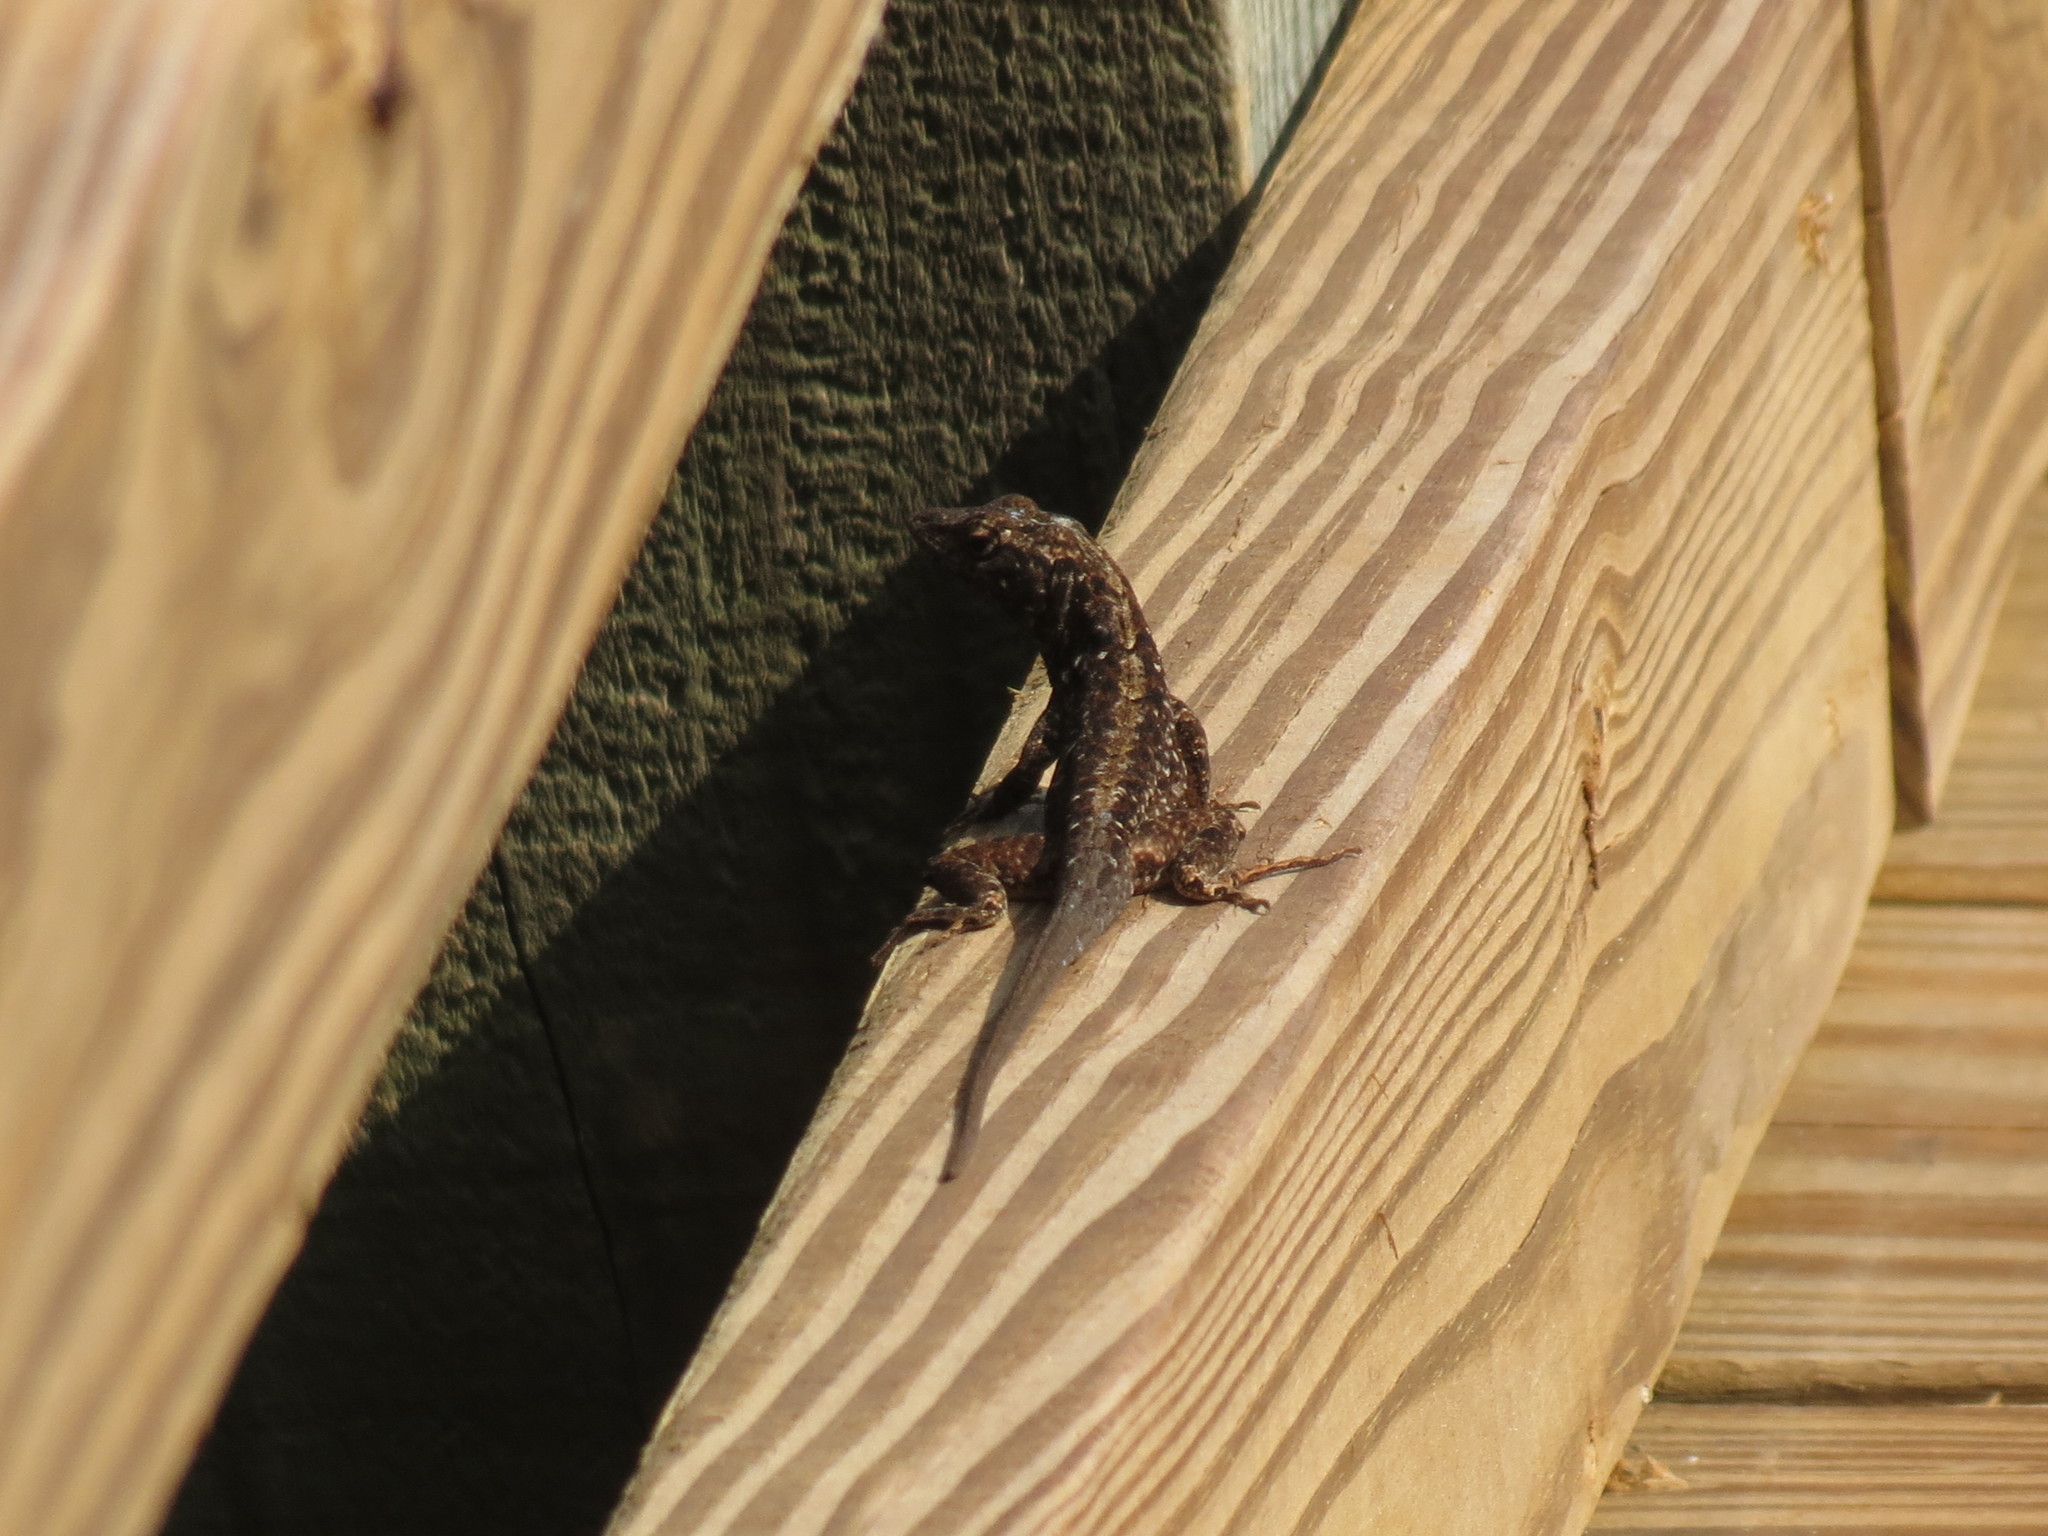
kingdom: Animalia
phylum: Chordata
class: Squamata
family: Dactyloidae
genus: Anolis
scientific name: Anolis sagrei
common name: Brown anole
